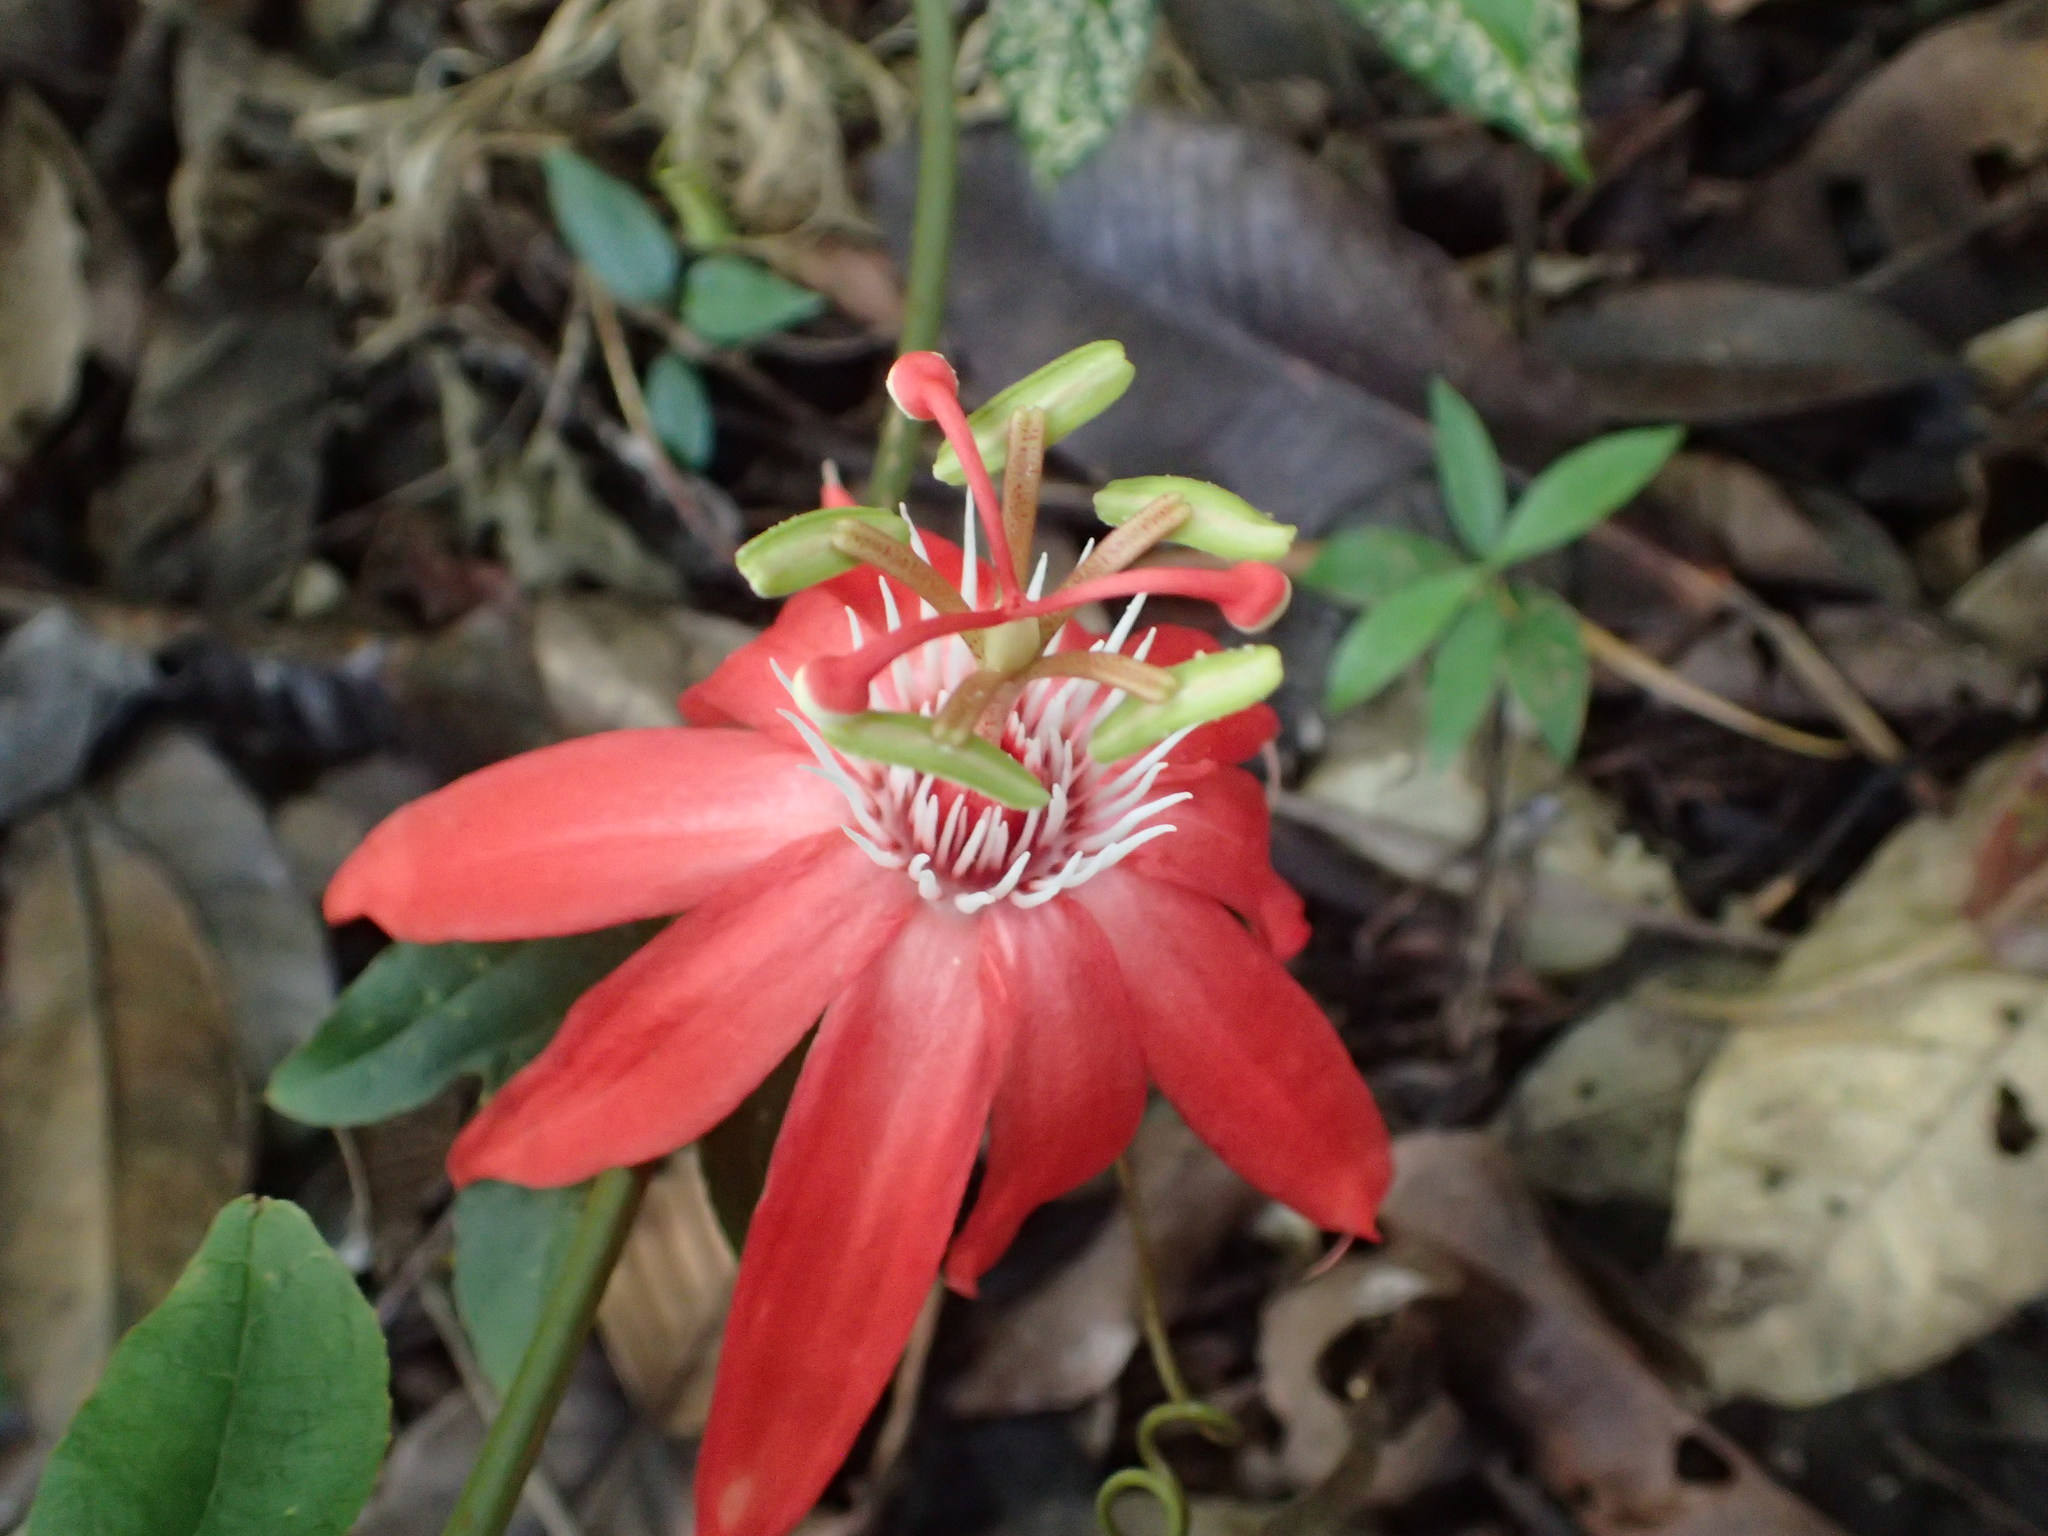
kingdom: Plantae
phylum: Tracheophyta
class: Magnoliopsida
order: Malpighiales
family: Passifloraceae
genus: Passiflora
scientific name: Passiflora vitifolia
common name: Perfumed passionflower
